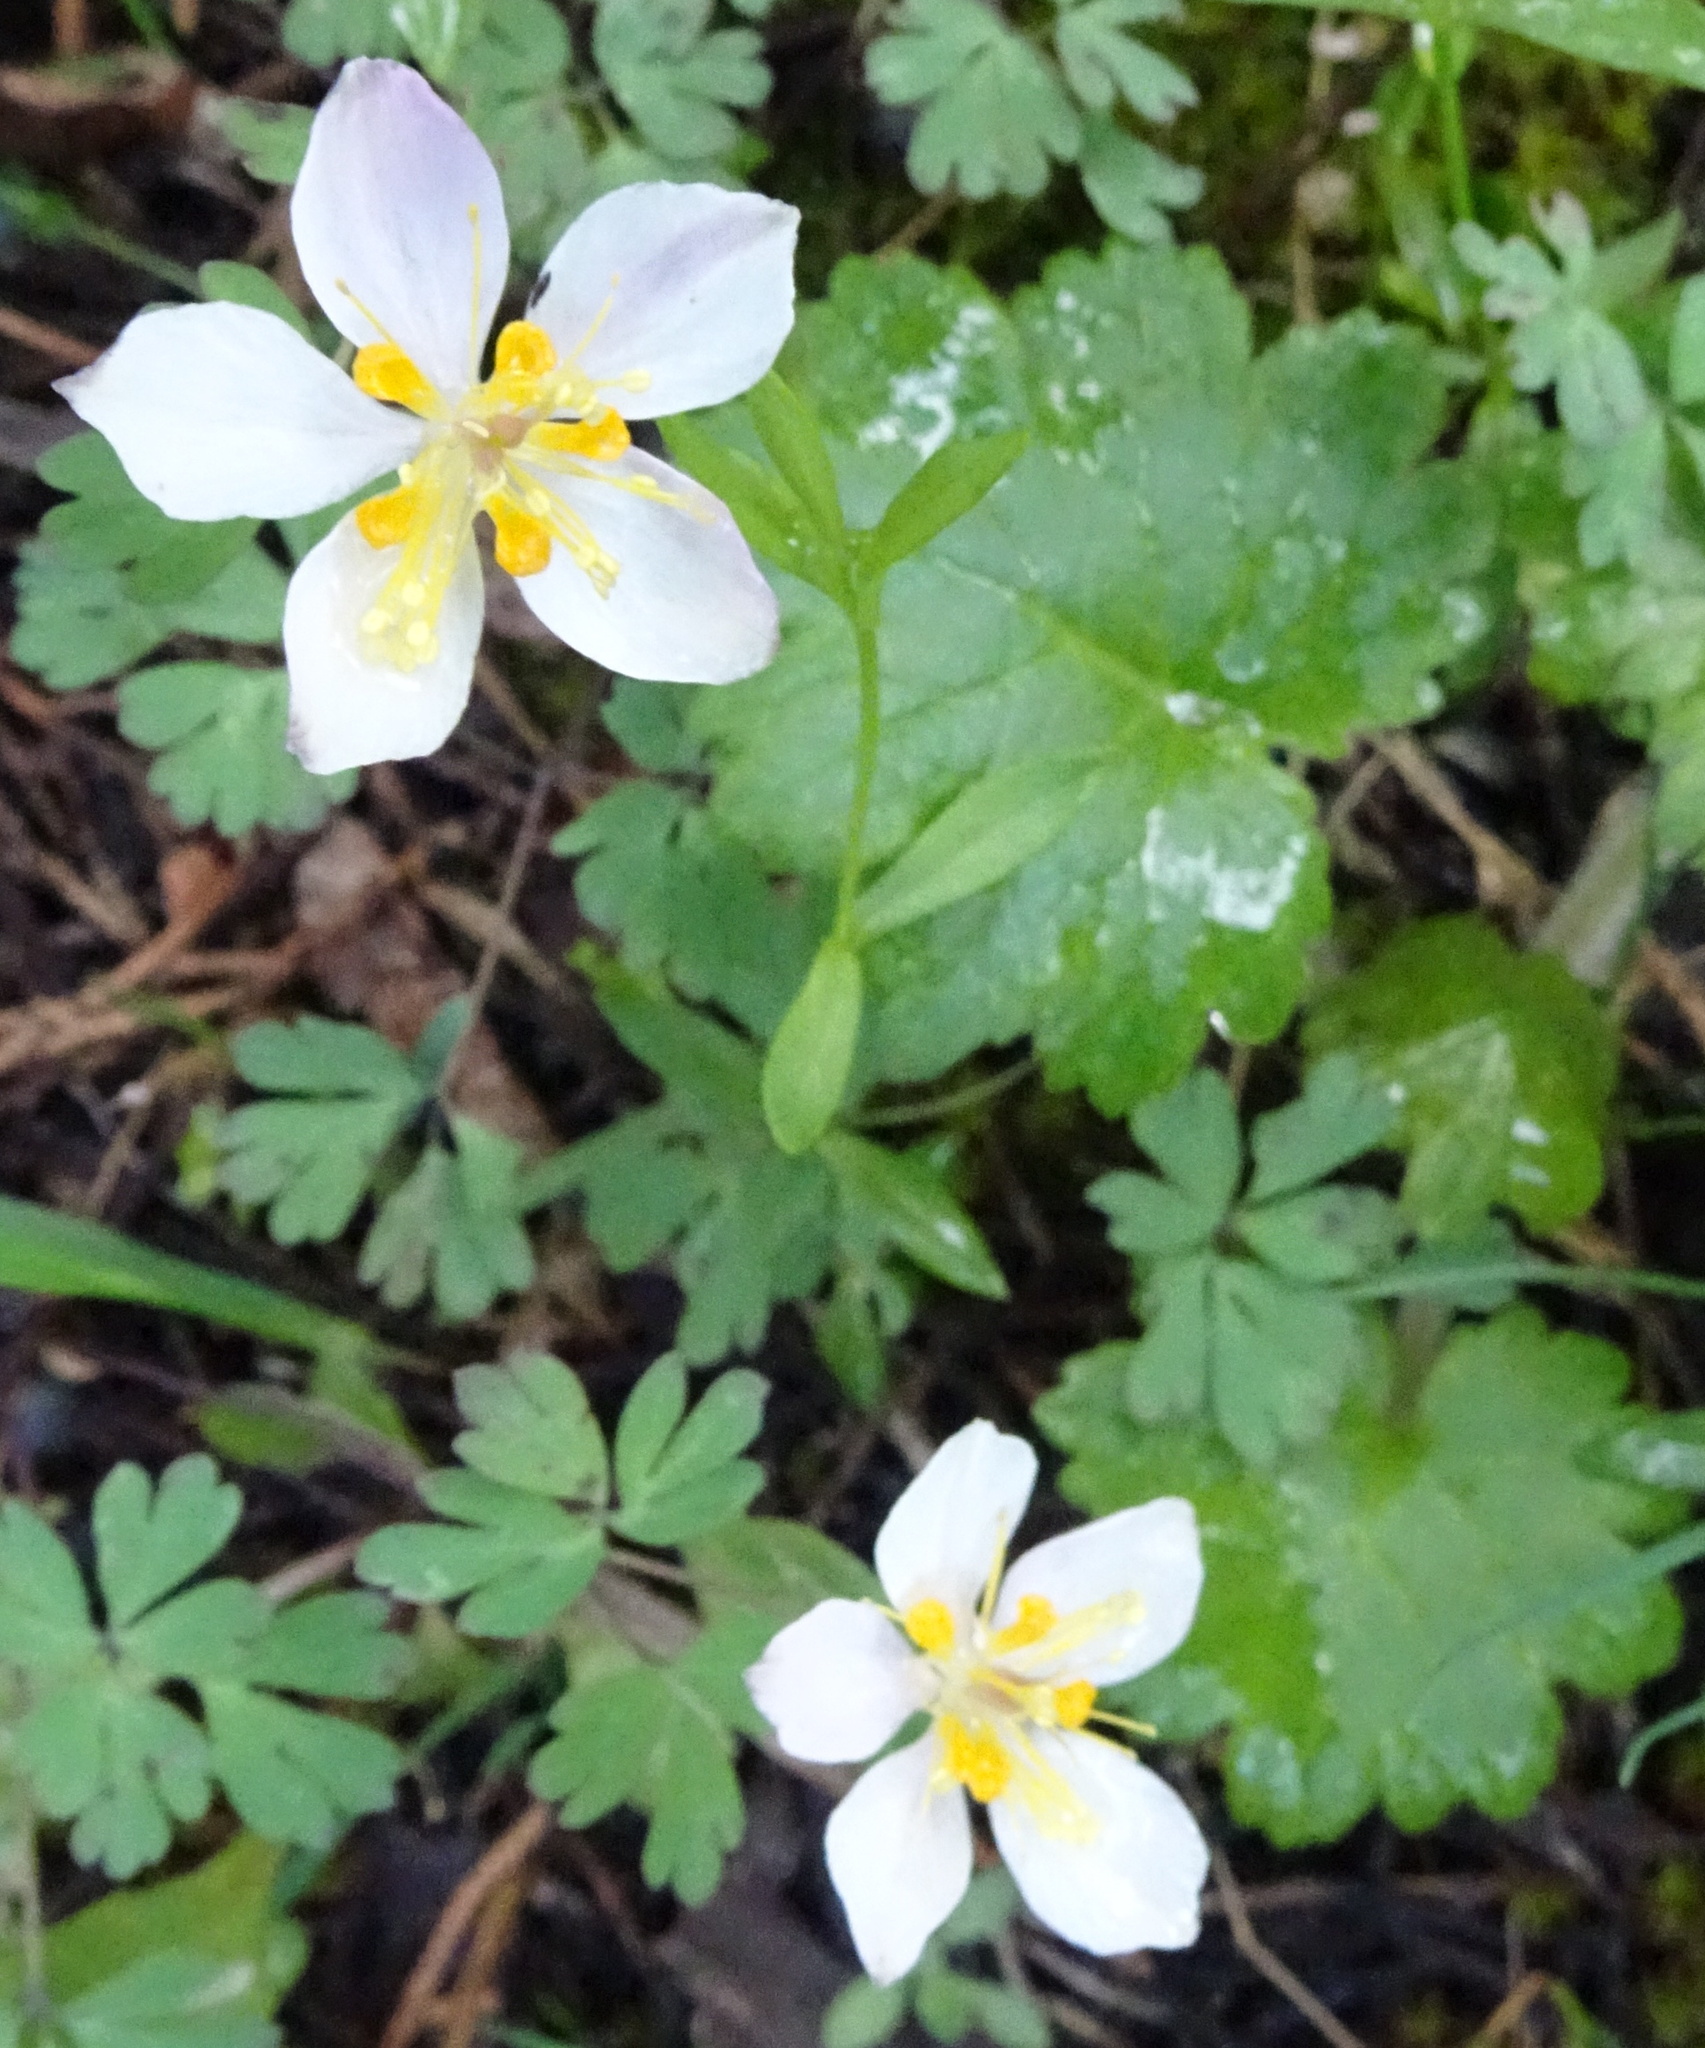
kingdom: Plantae
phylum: Tracheophyta
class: Magnoliopsida
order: Ranunculales
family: Ranunculaceae
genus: Isopyrum
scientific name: Isopyrum anemonoides
